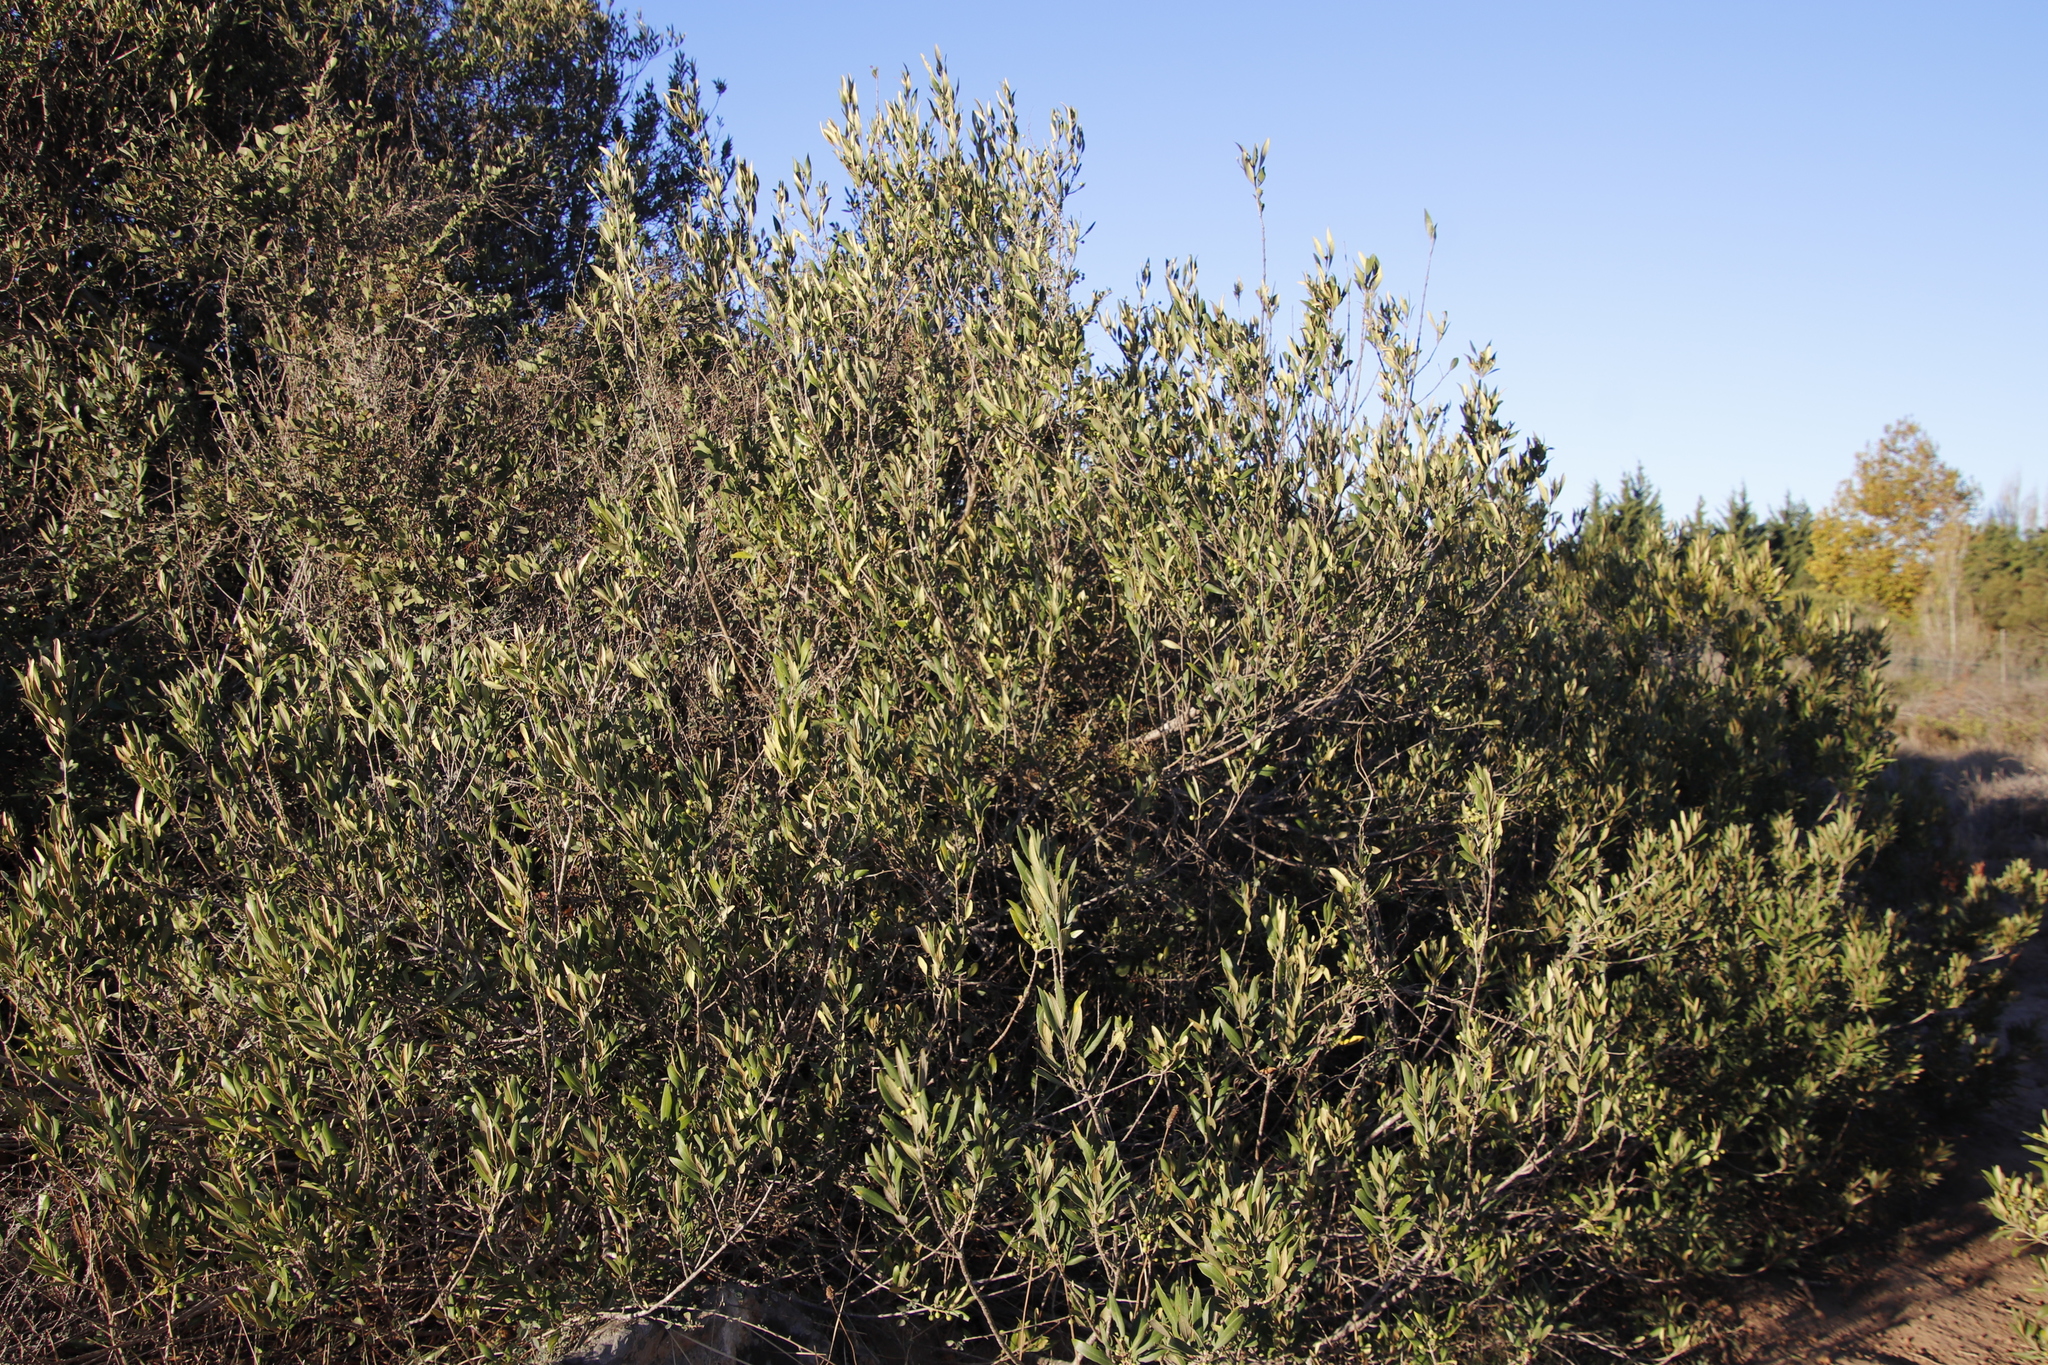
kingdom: Plantae
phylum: Tracheophyta
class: Magnoliopsida
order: Lamiales
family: Oleaceae
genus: Olea
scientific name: Olea europaea
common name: Olive
